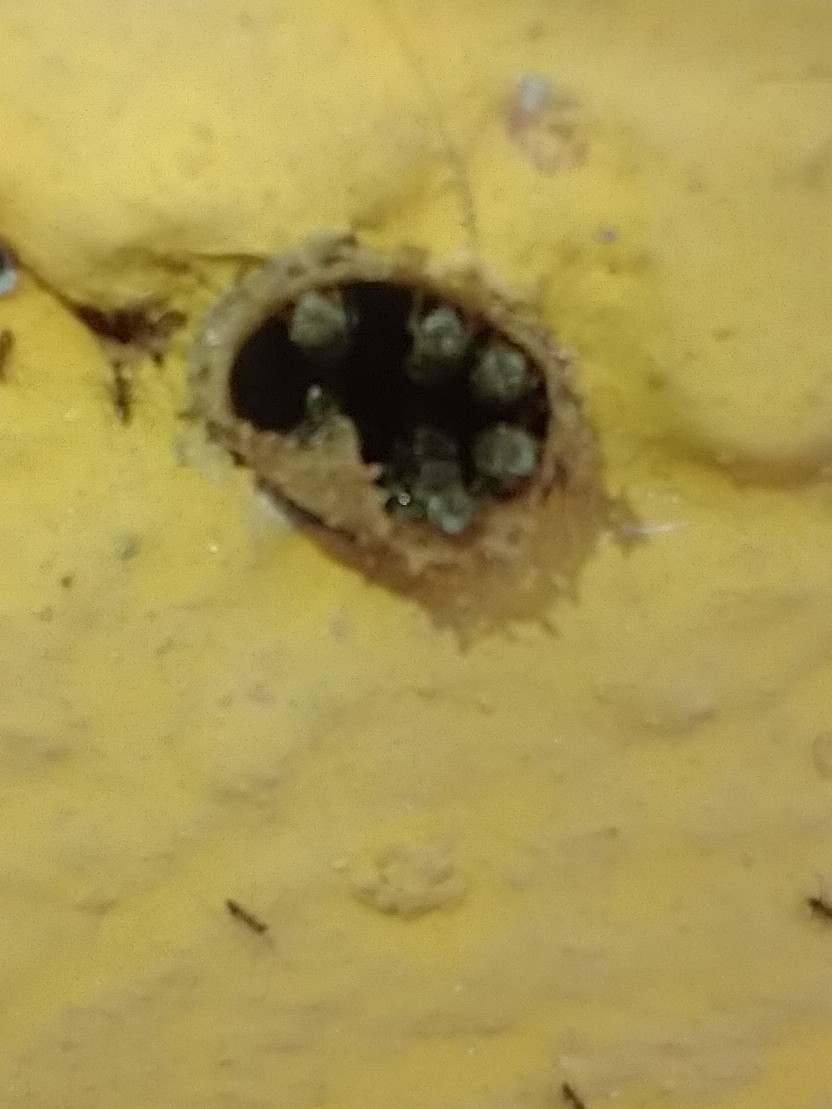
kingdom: Animalia
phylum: Arthropoda
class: Insecta
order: Hymenoptera
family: Apidae
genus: Nannotrigona
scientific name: Nannotrigona perilampoides
